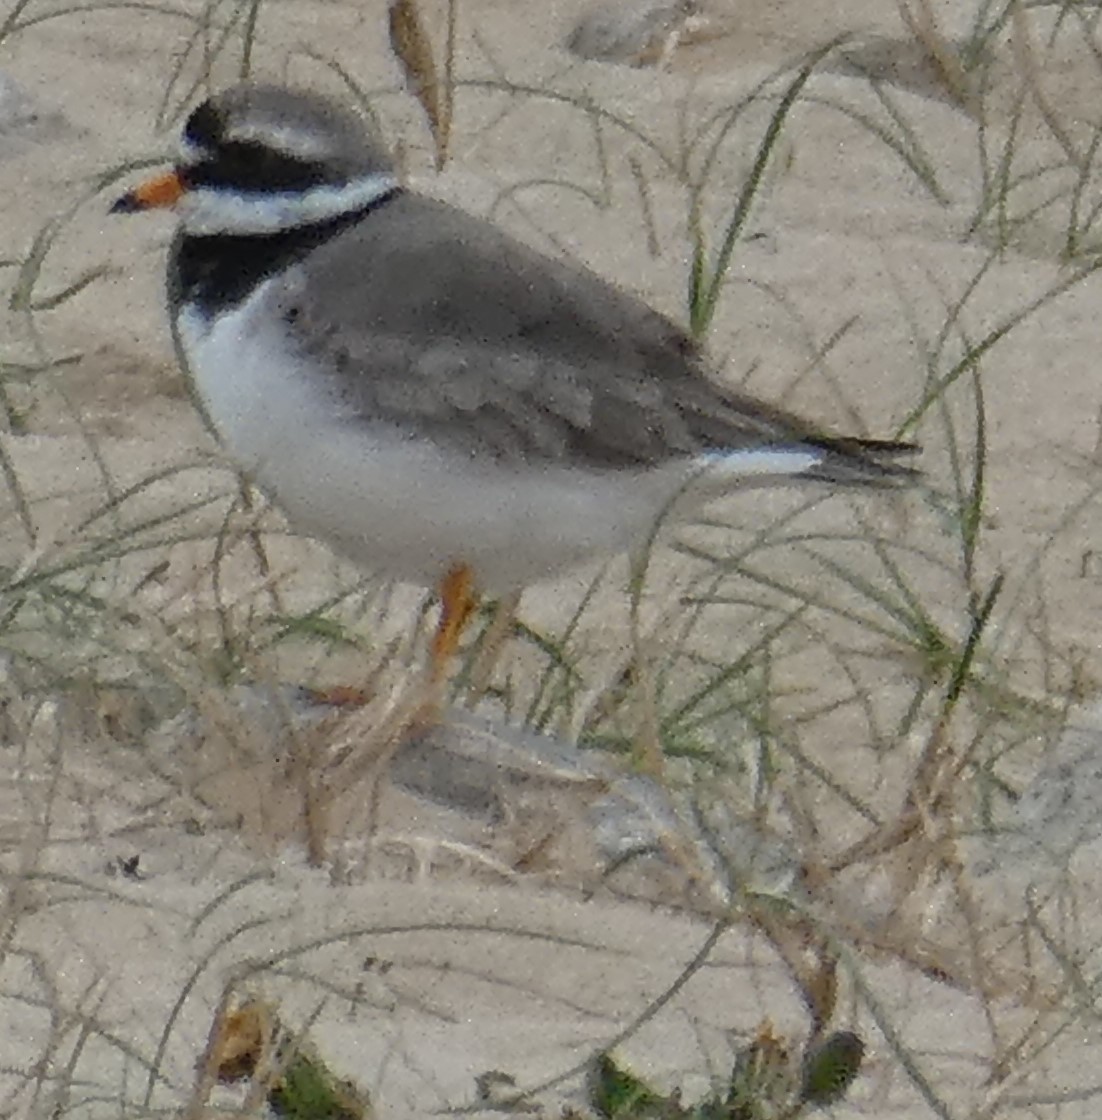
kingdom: Animalia
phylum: Chordata
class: Aves
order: Charadriiformes
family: Charadriidae
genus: Charadrius
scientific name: Charadrius hiaticula
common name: Common ringed plover
